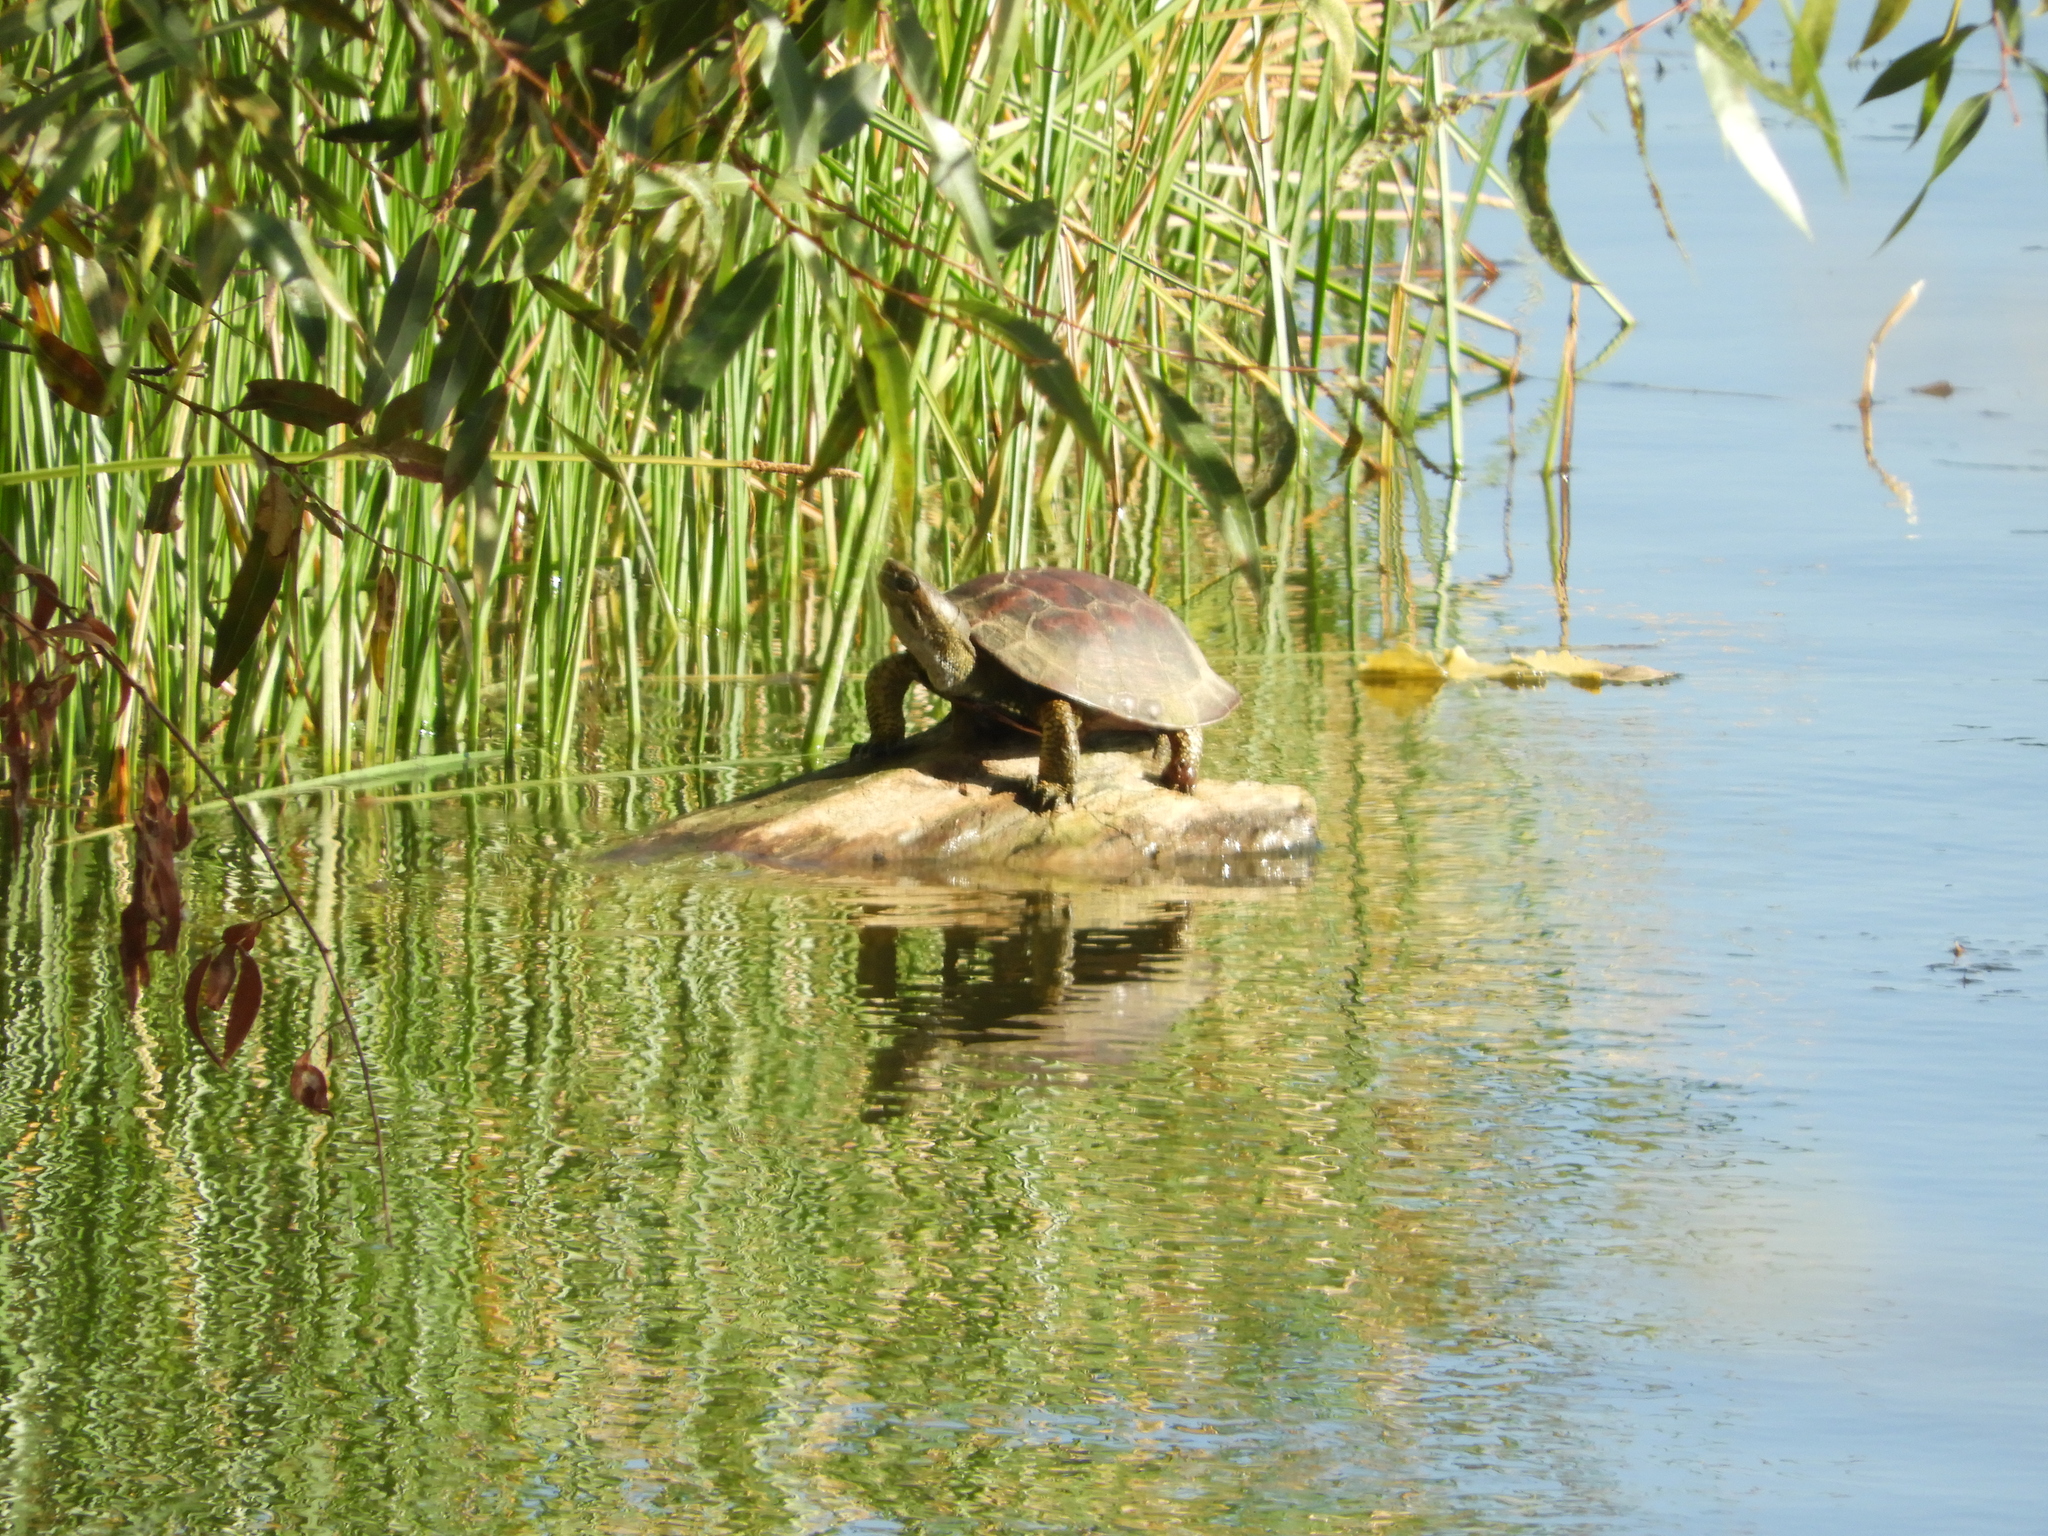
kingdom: Animalia
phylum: Chordata
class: Testudines
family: Emydidae
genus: Actinemys
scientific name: Actinemys marmorata
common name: Western pond turtle
